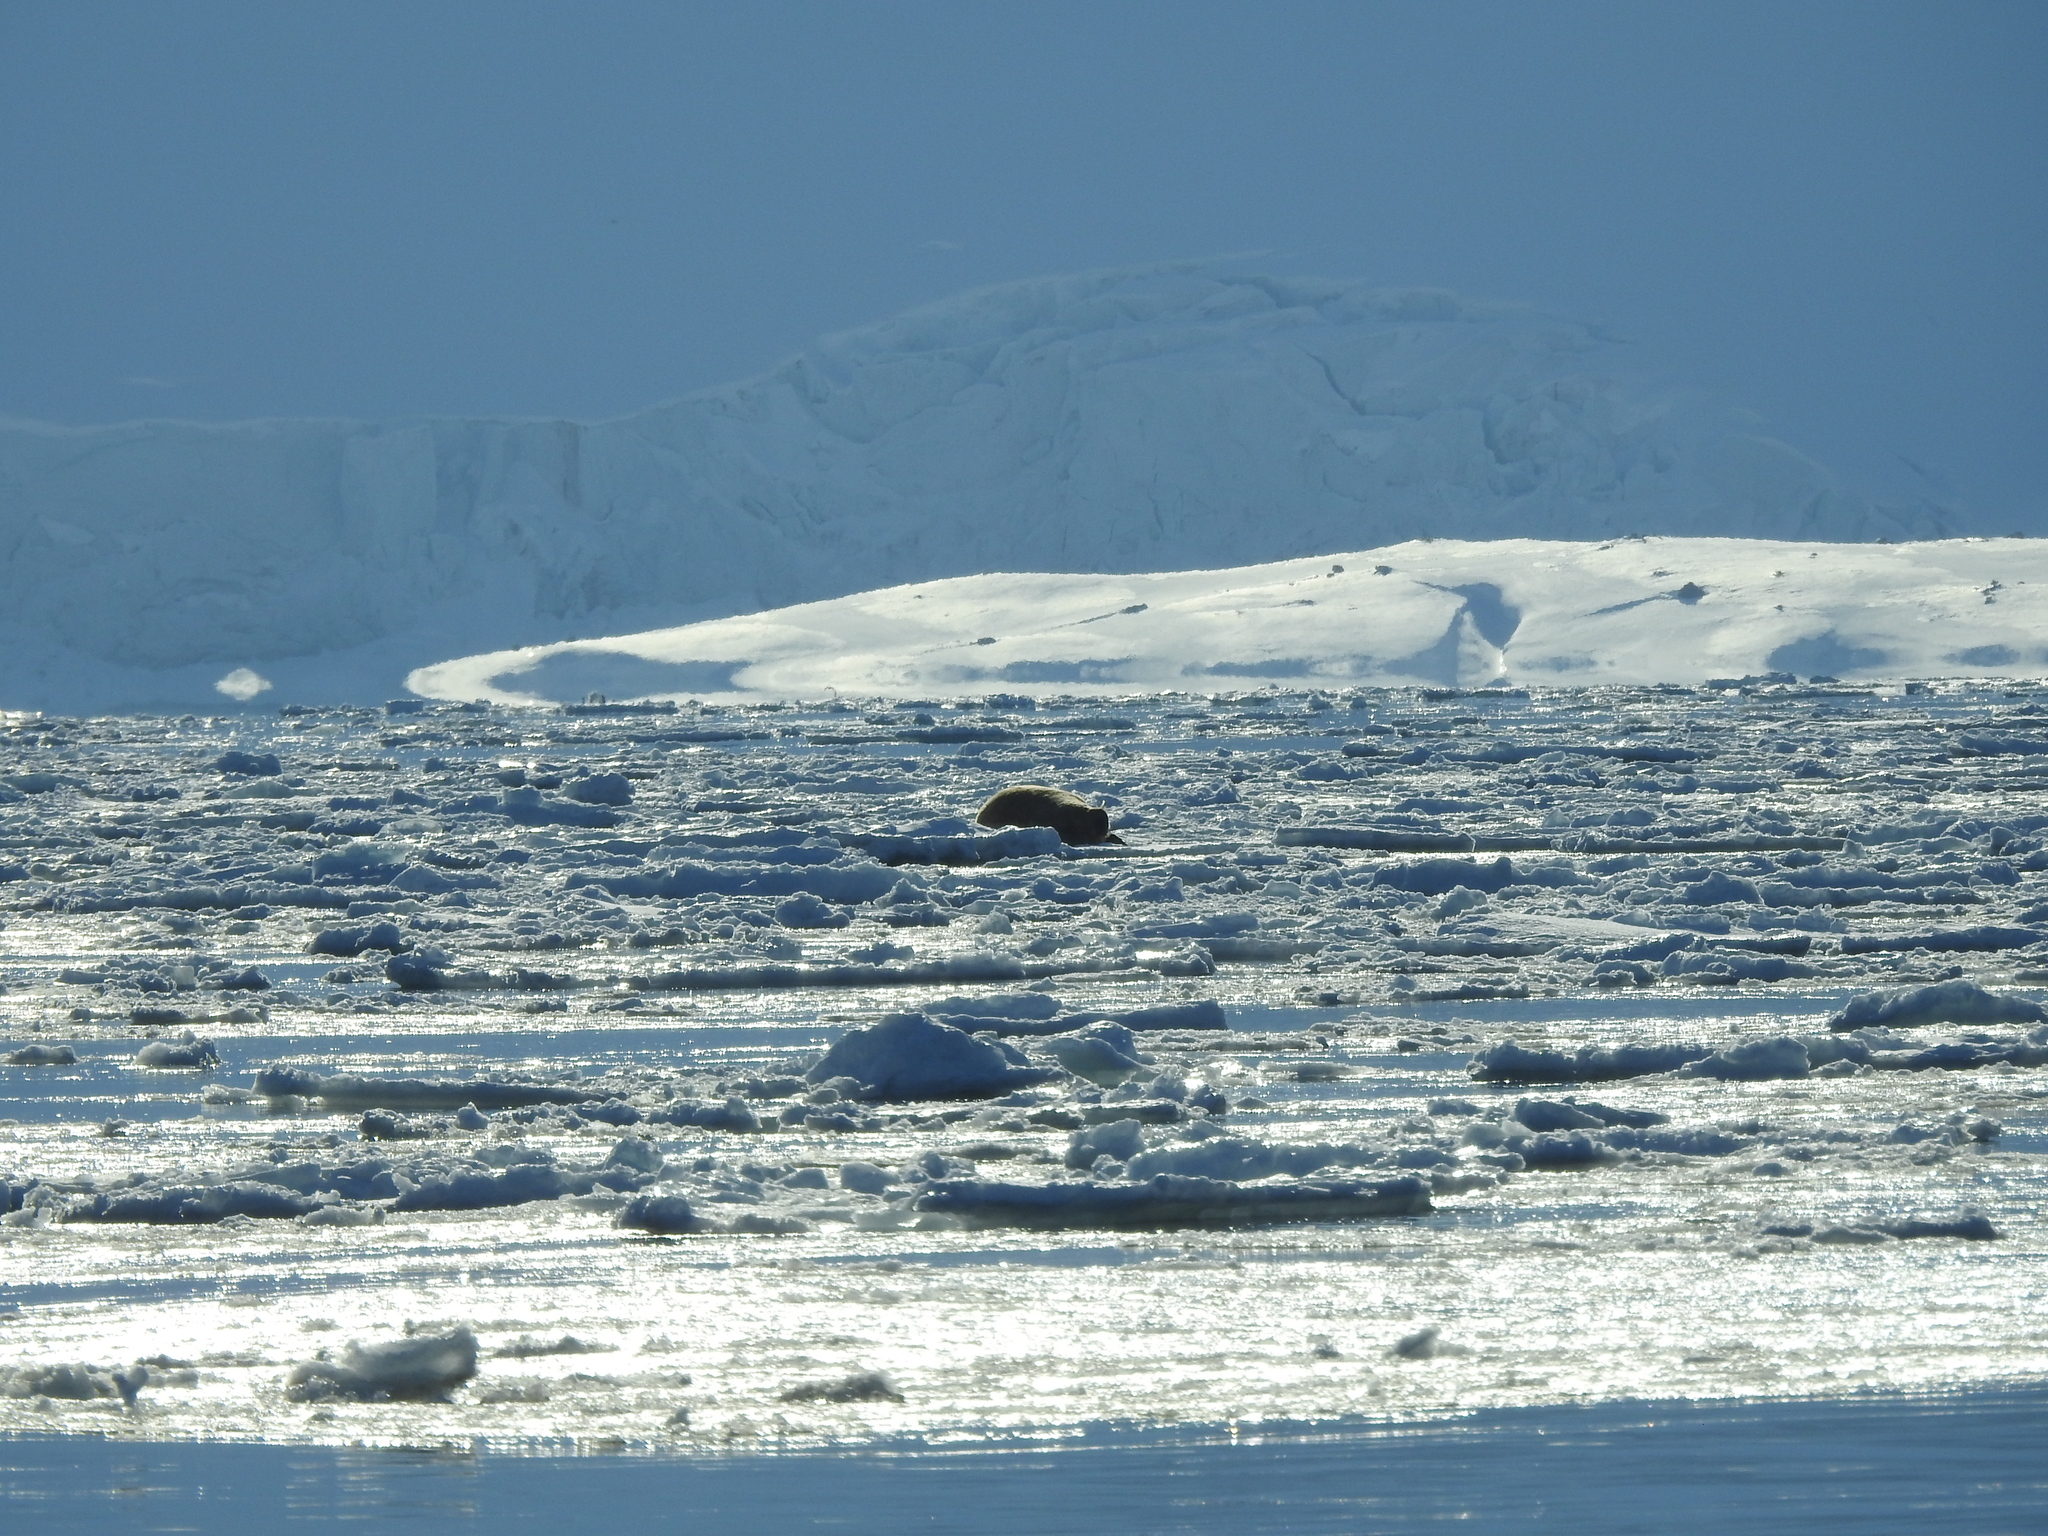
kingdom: Animalia
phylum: Chordata
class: Mammalia
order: Carnivora
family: Odobenidae
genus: Odobenus
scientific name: Odobenus rosmarus
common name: Walrus
